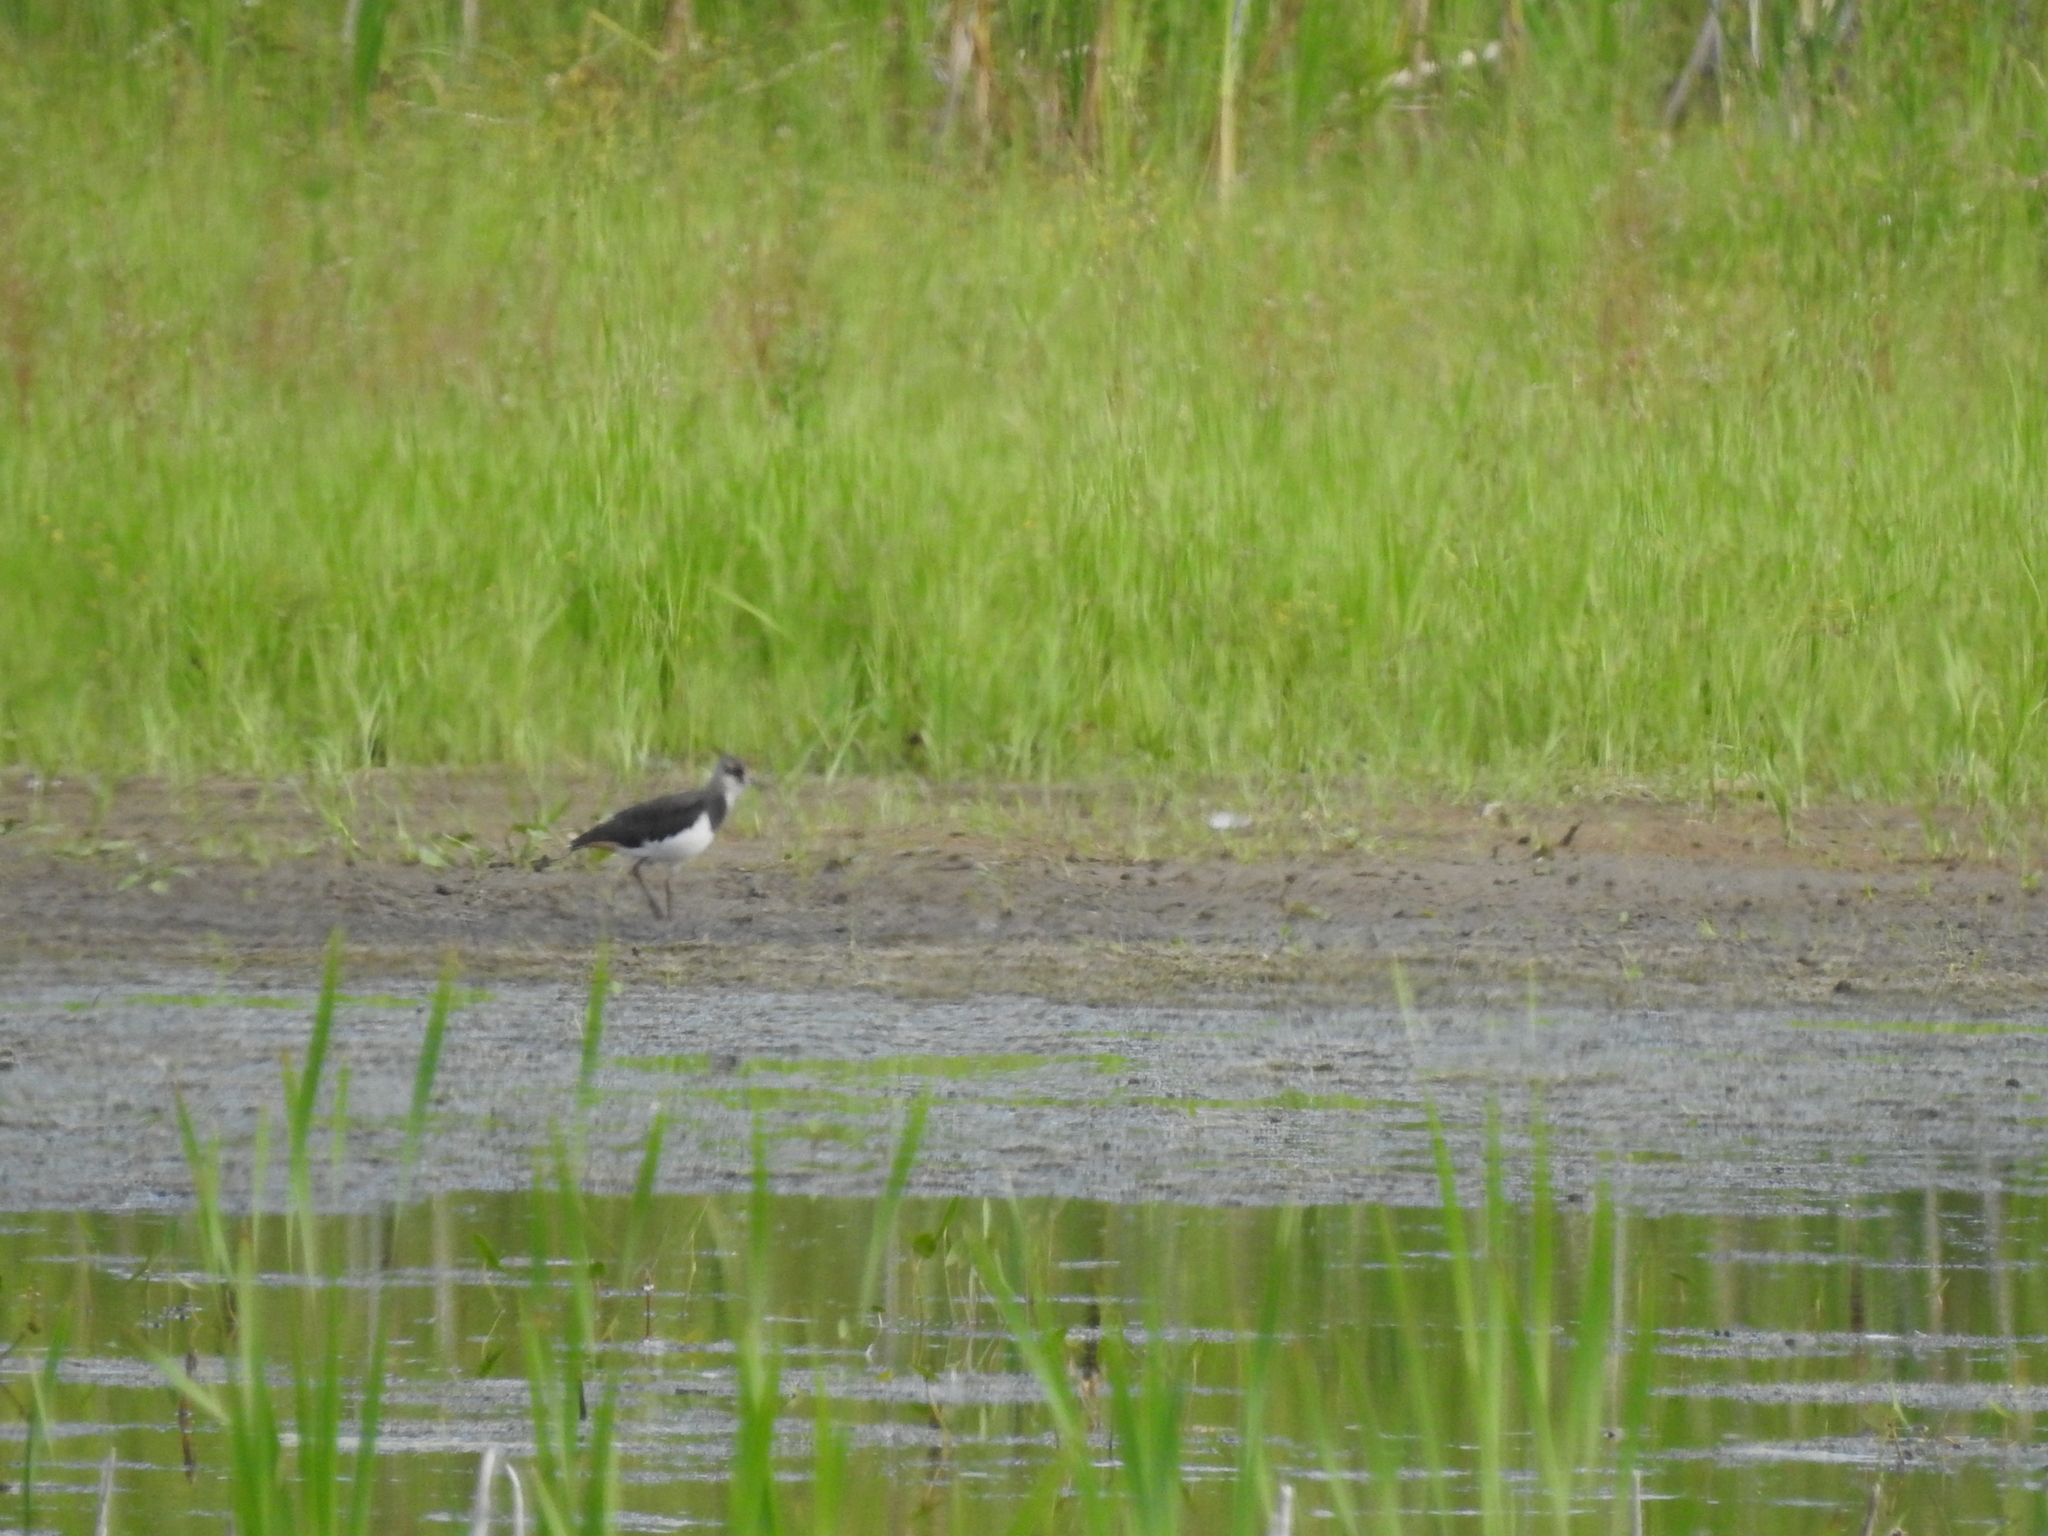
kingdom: Animalia
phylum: Chordata
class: Aves
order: Charadriiformes
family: Charadriidae
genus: Vanellus
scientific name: Vanellus vanellus
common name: Northern lapwing
